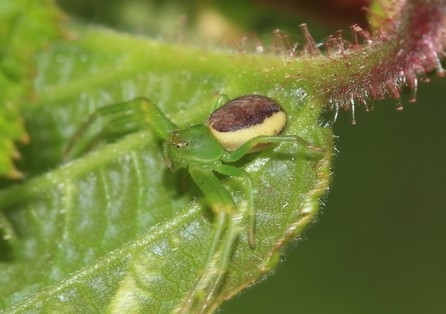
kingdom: Animalia
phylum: Arthropoda
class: Arachnida
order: Araneae
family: Thomisidae
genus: Diaea
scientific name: Diaea dorsata
